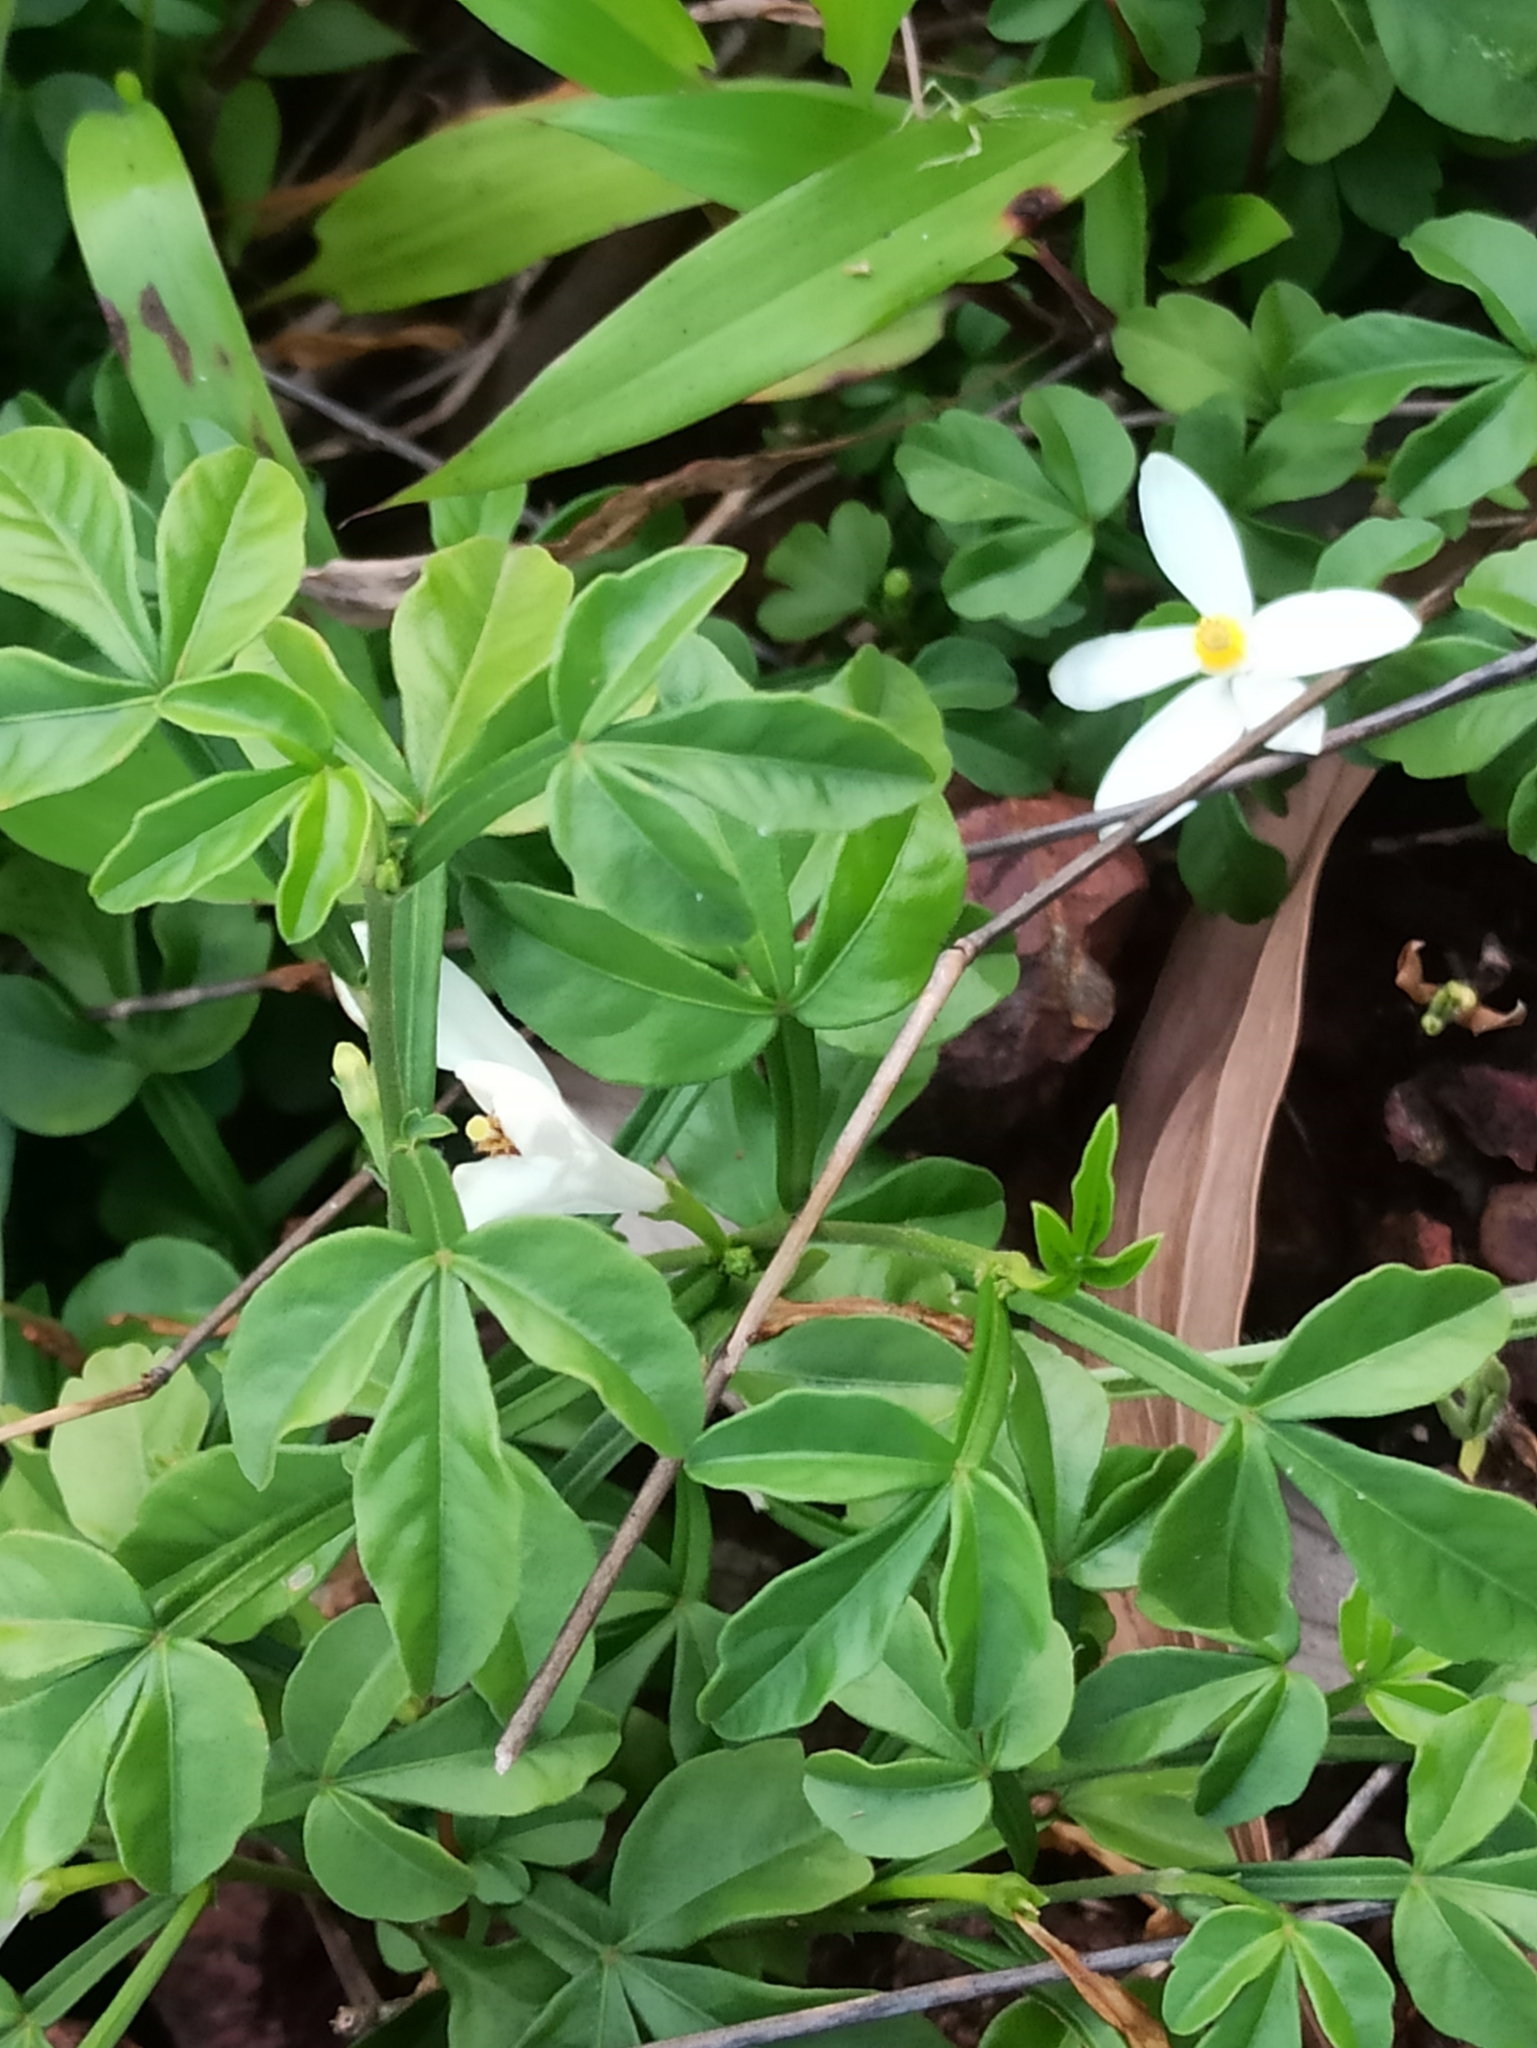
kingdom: Plantae
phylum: Tracheophyta
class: Magnoliopsida
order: Sapindales
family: Meliaceae
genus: Naregamia
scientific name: Naregamia alata
